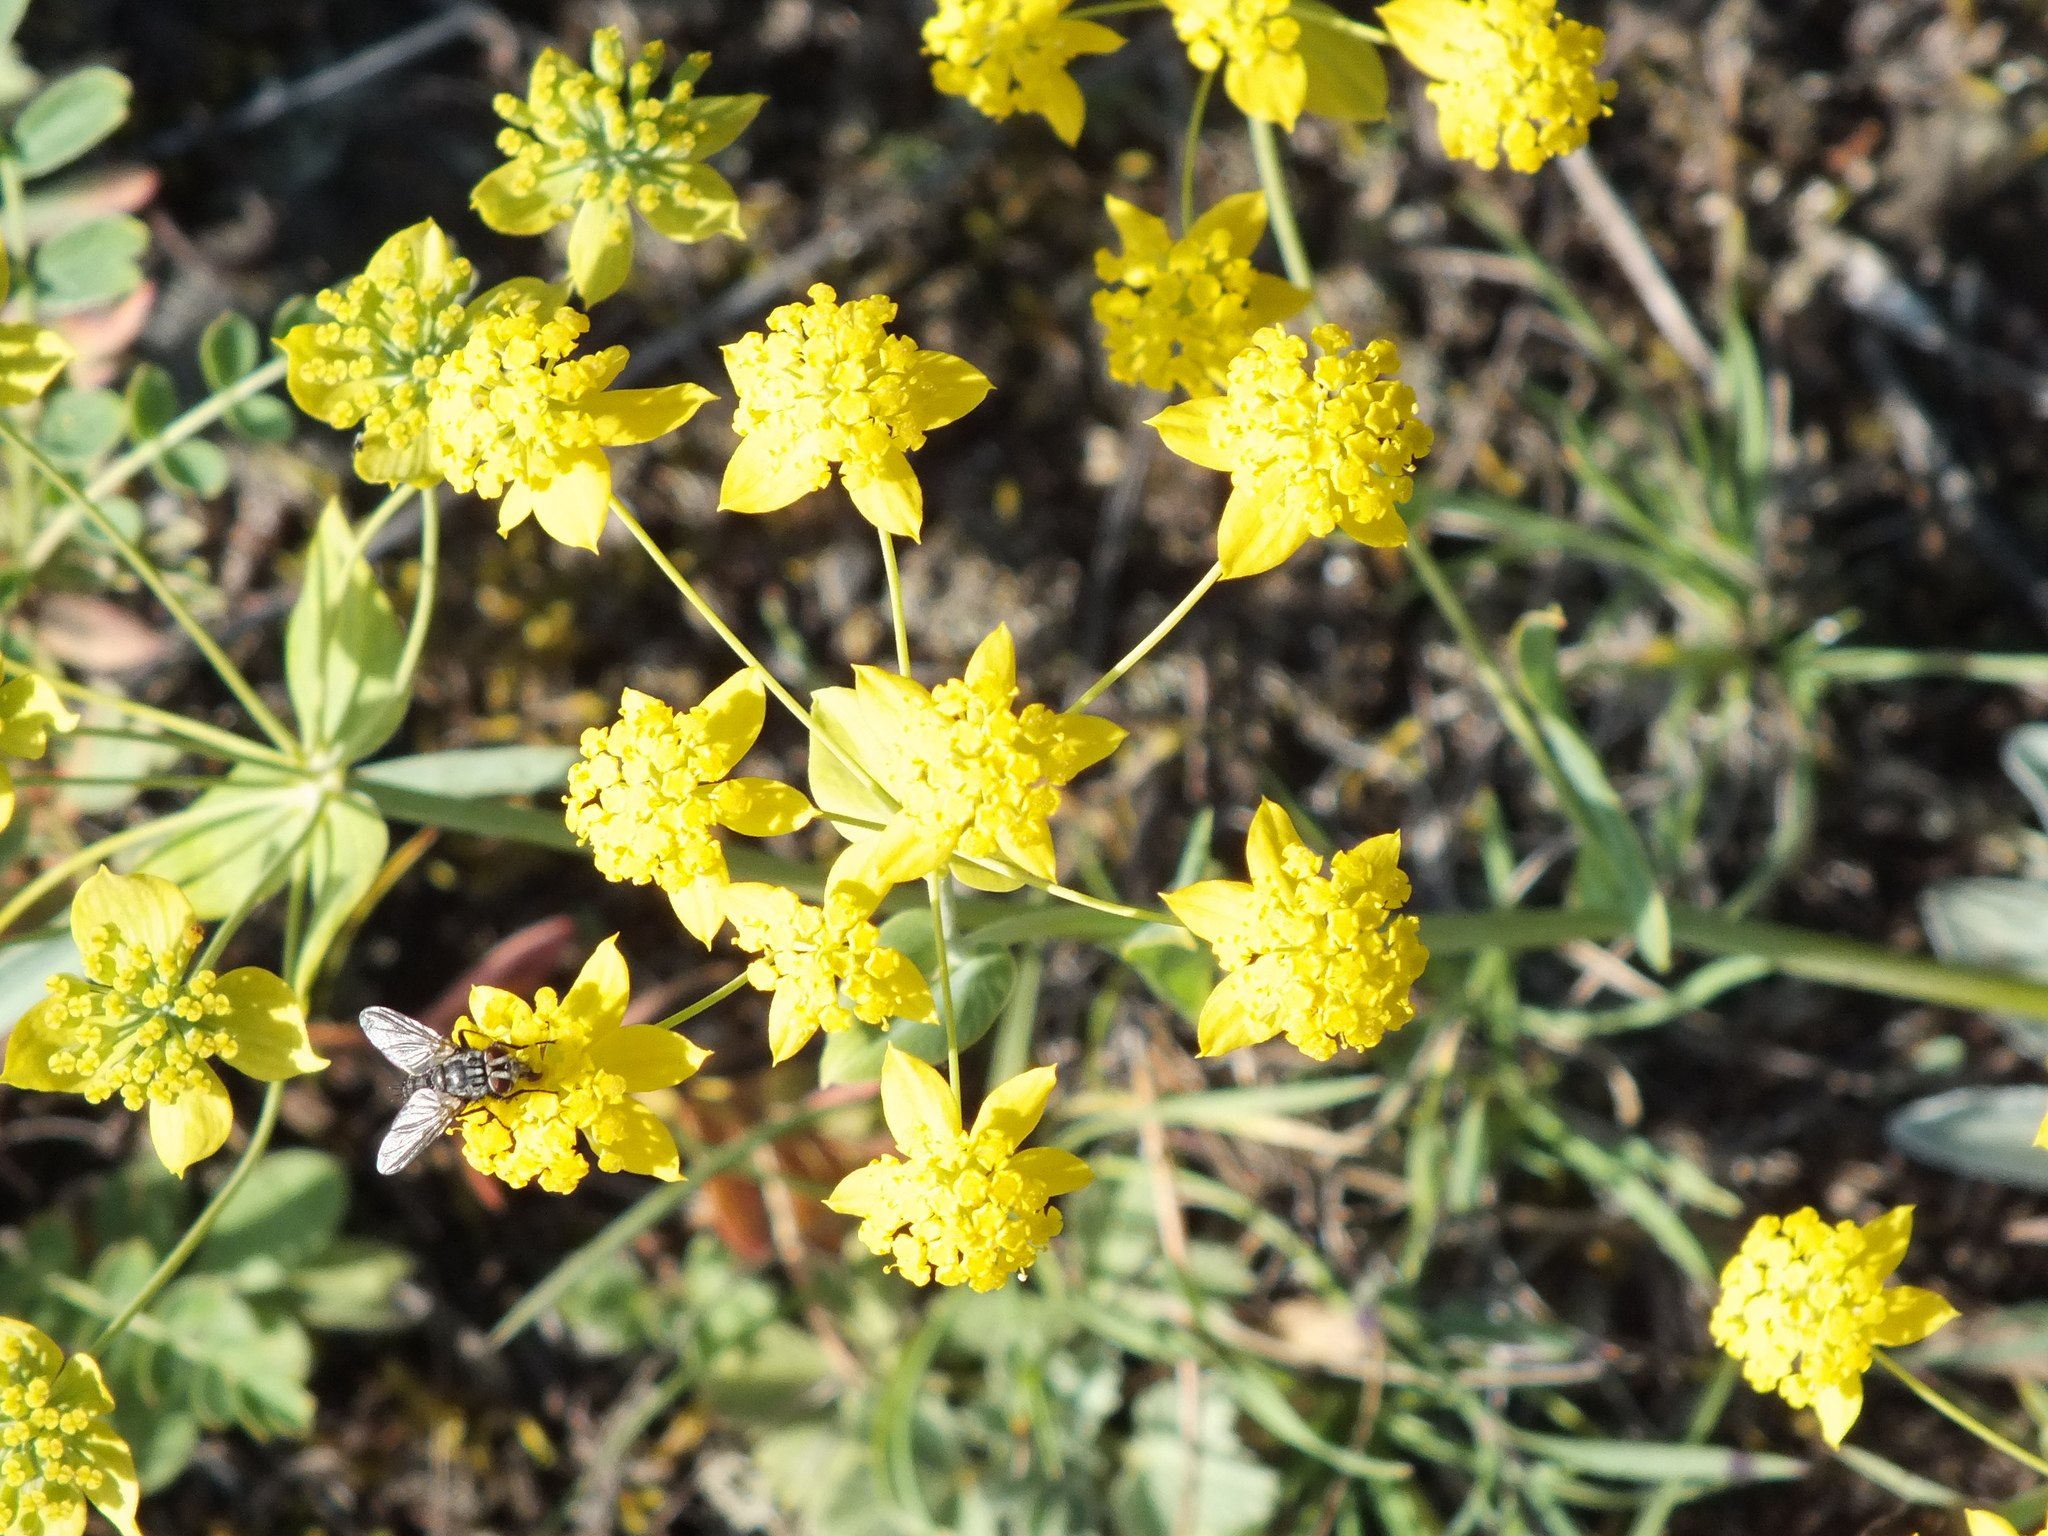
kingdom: Plantae
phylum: Tracheophyta
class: Magnoliopsida
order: Apiales
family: Apiaceae
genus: Bupleurum
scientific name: Bupleurum multinerve
